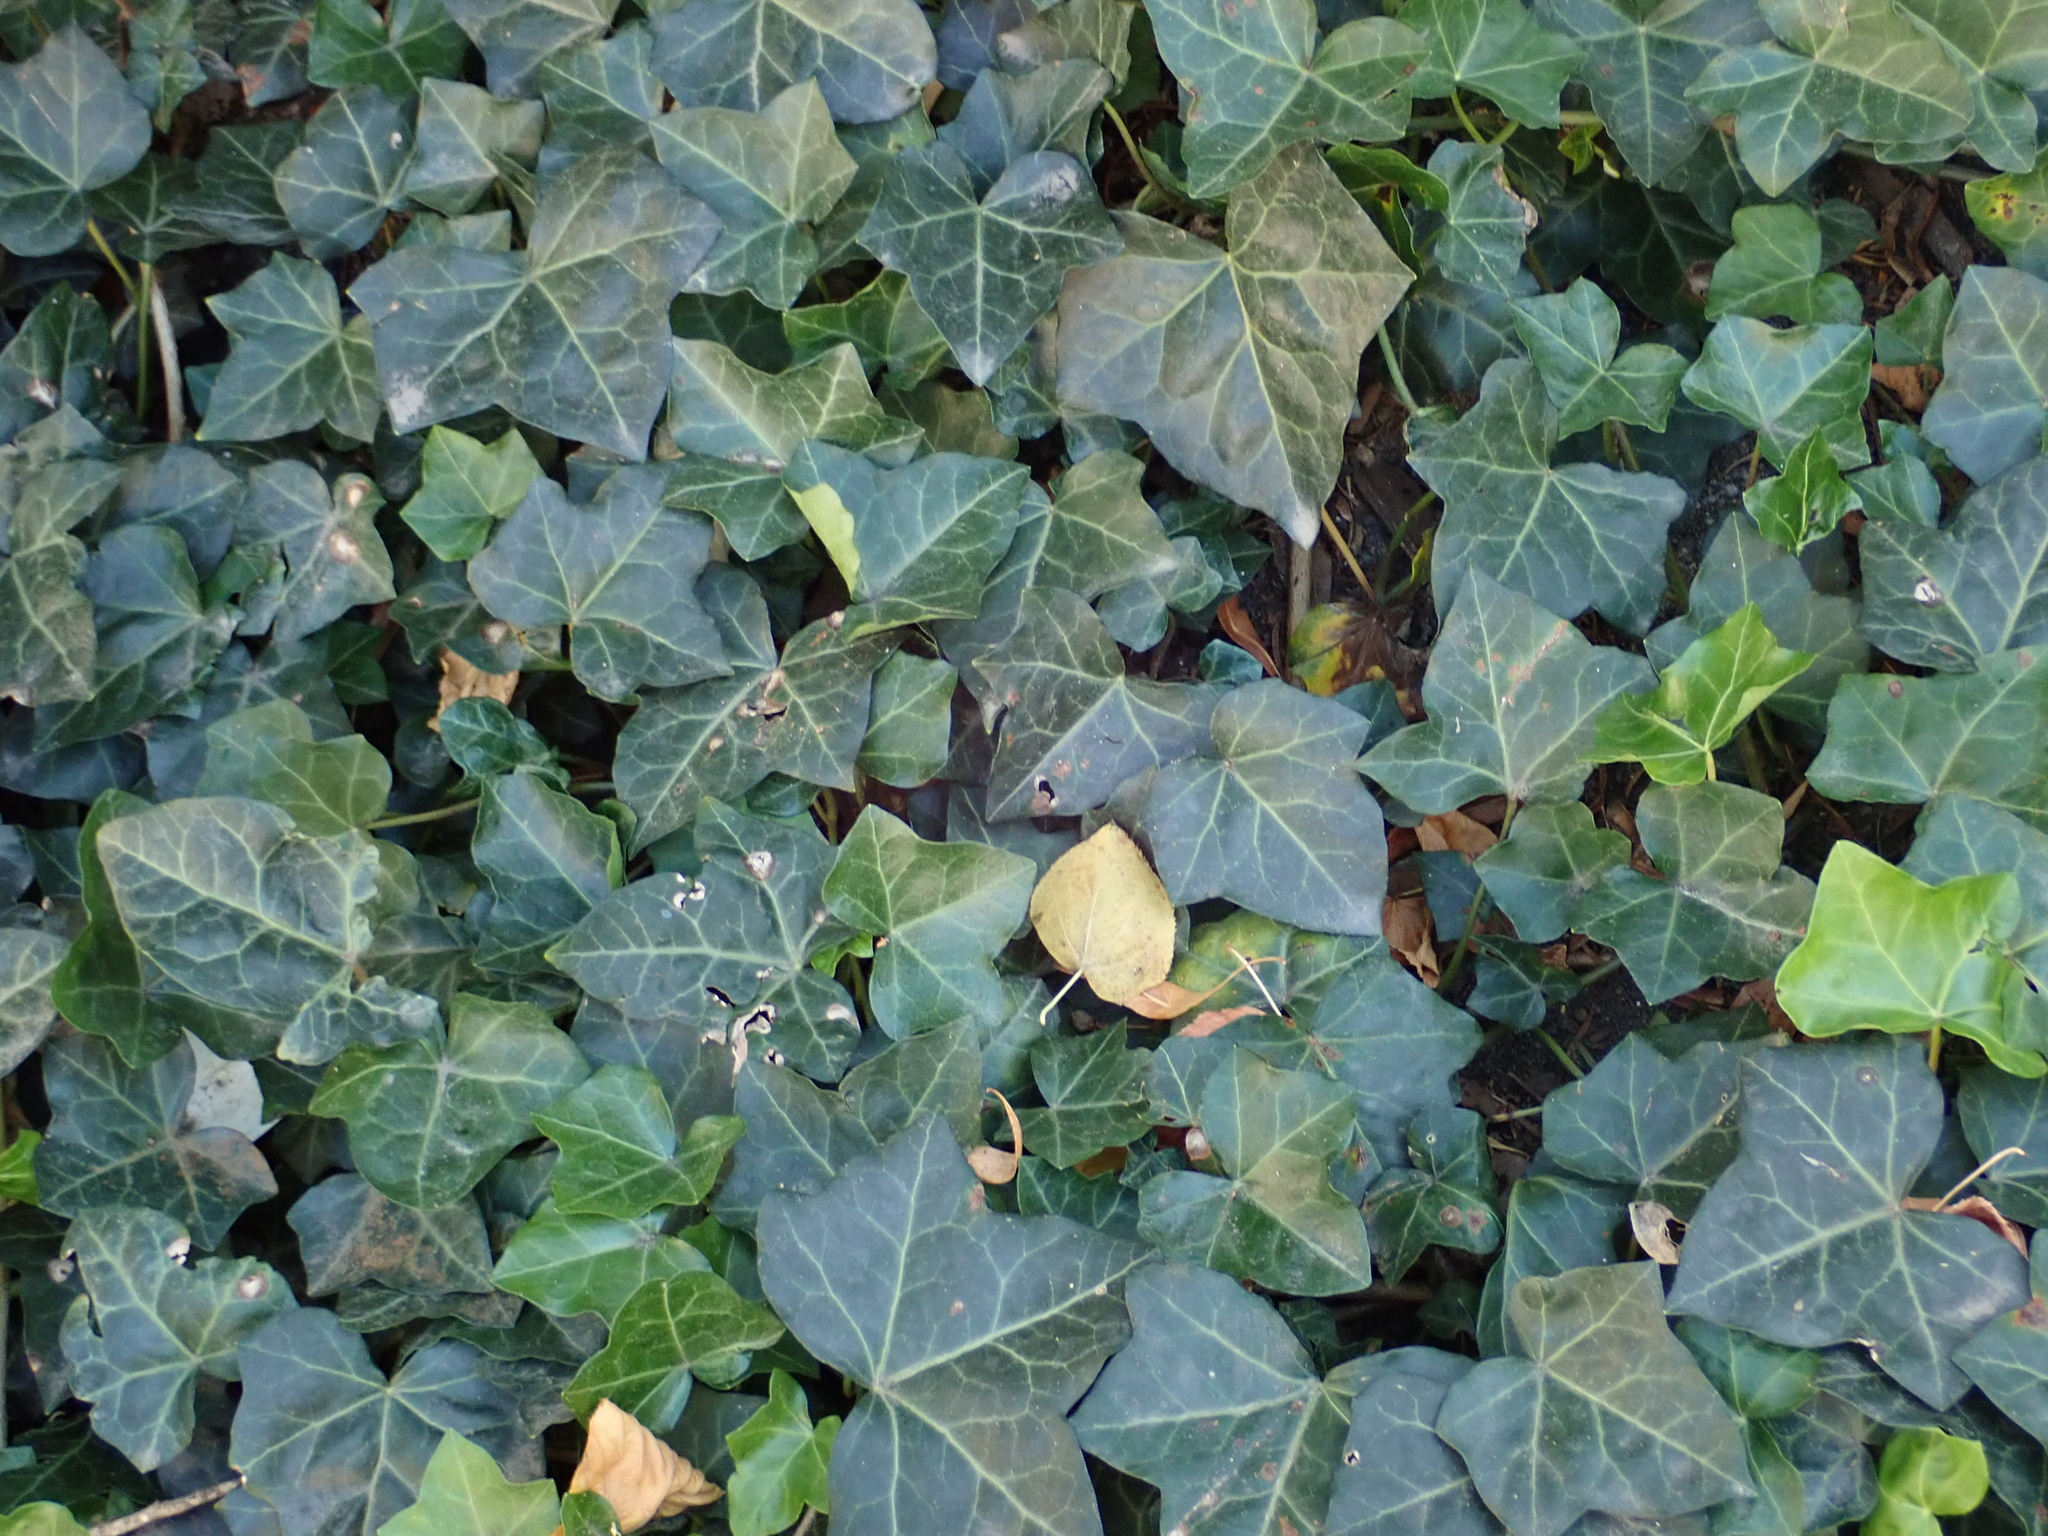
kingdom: Plantae
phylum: Tracheophyta
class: Magnoliopsida
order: Apiales
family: Araliaceae
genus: Hedera
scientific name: Hedera helix
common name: Ivy
